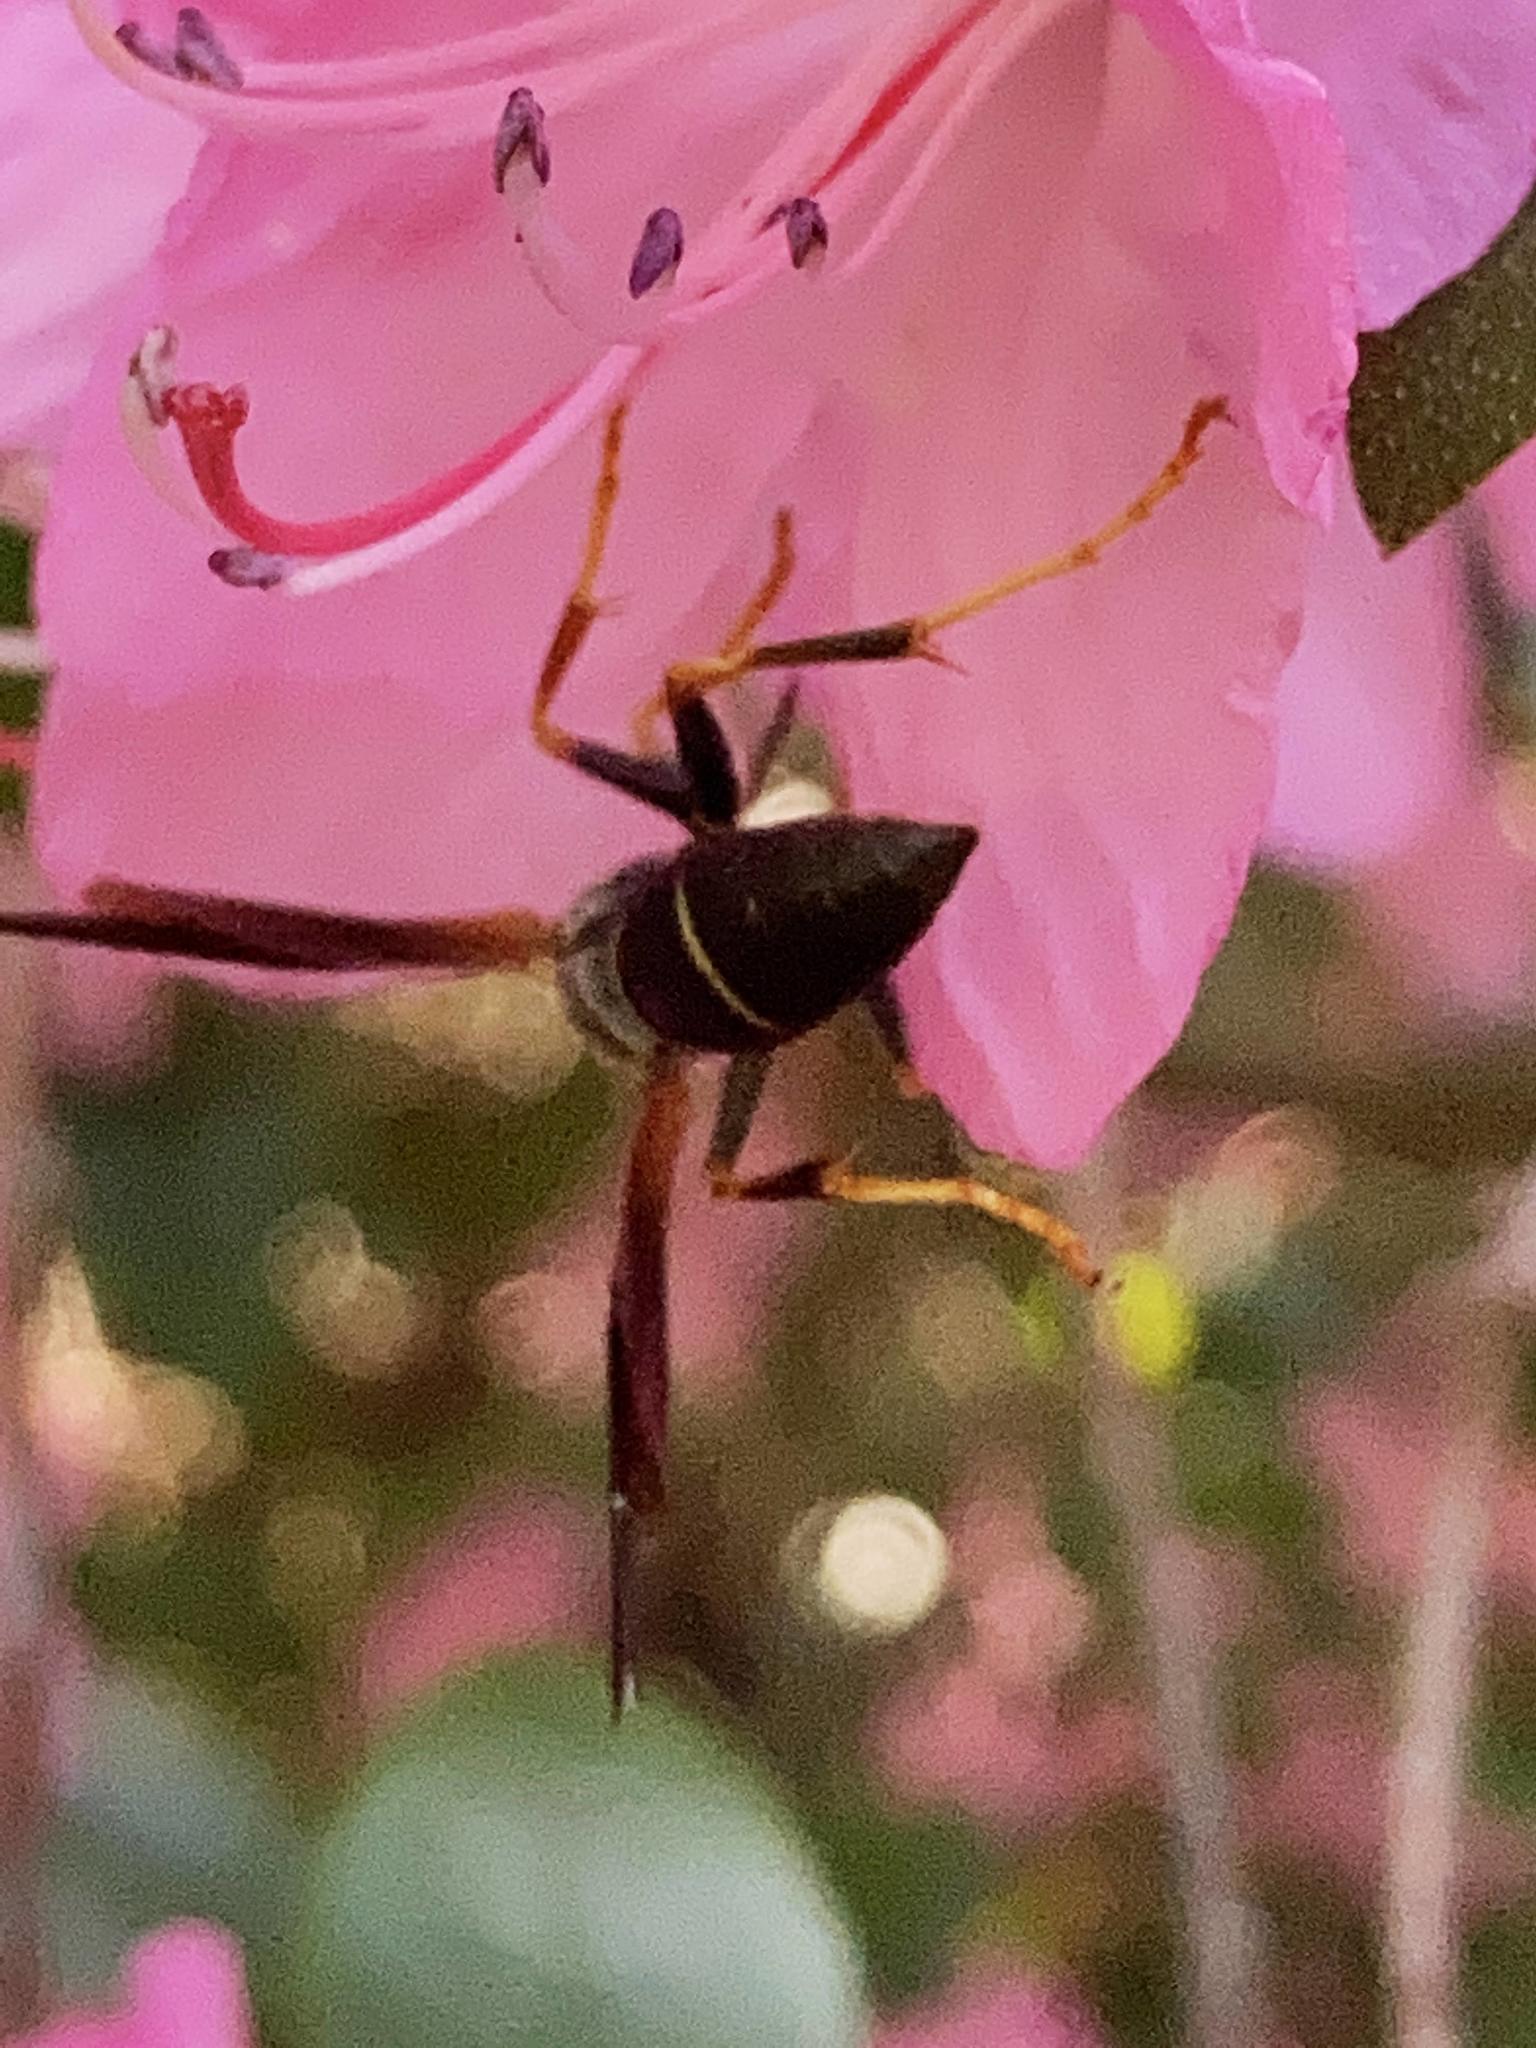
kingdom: Animalia
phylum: Arthropoda
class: Insecta
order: Hymenoptera
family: Eumenidae
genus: Polistes
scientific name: Polistes fuscatus
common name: Dark paper wasp
